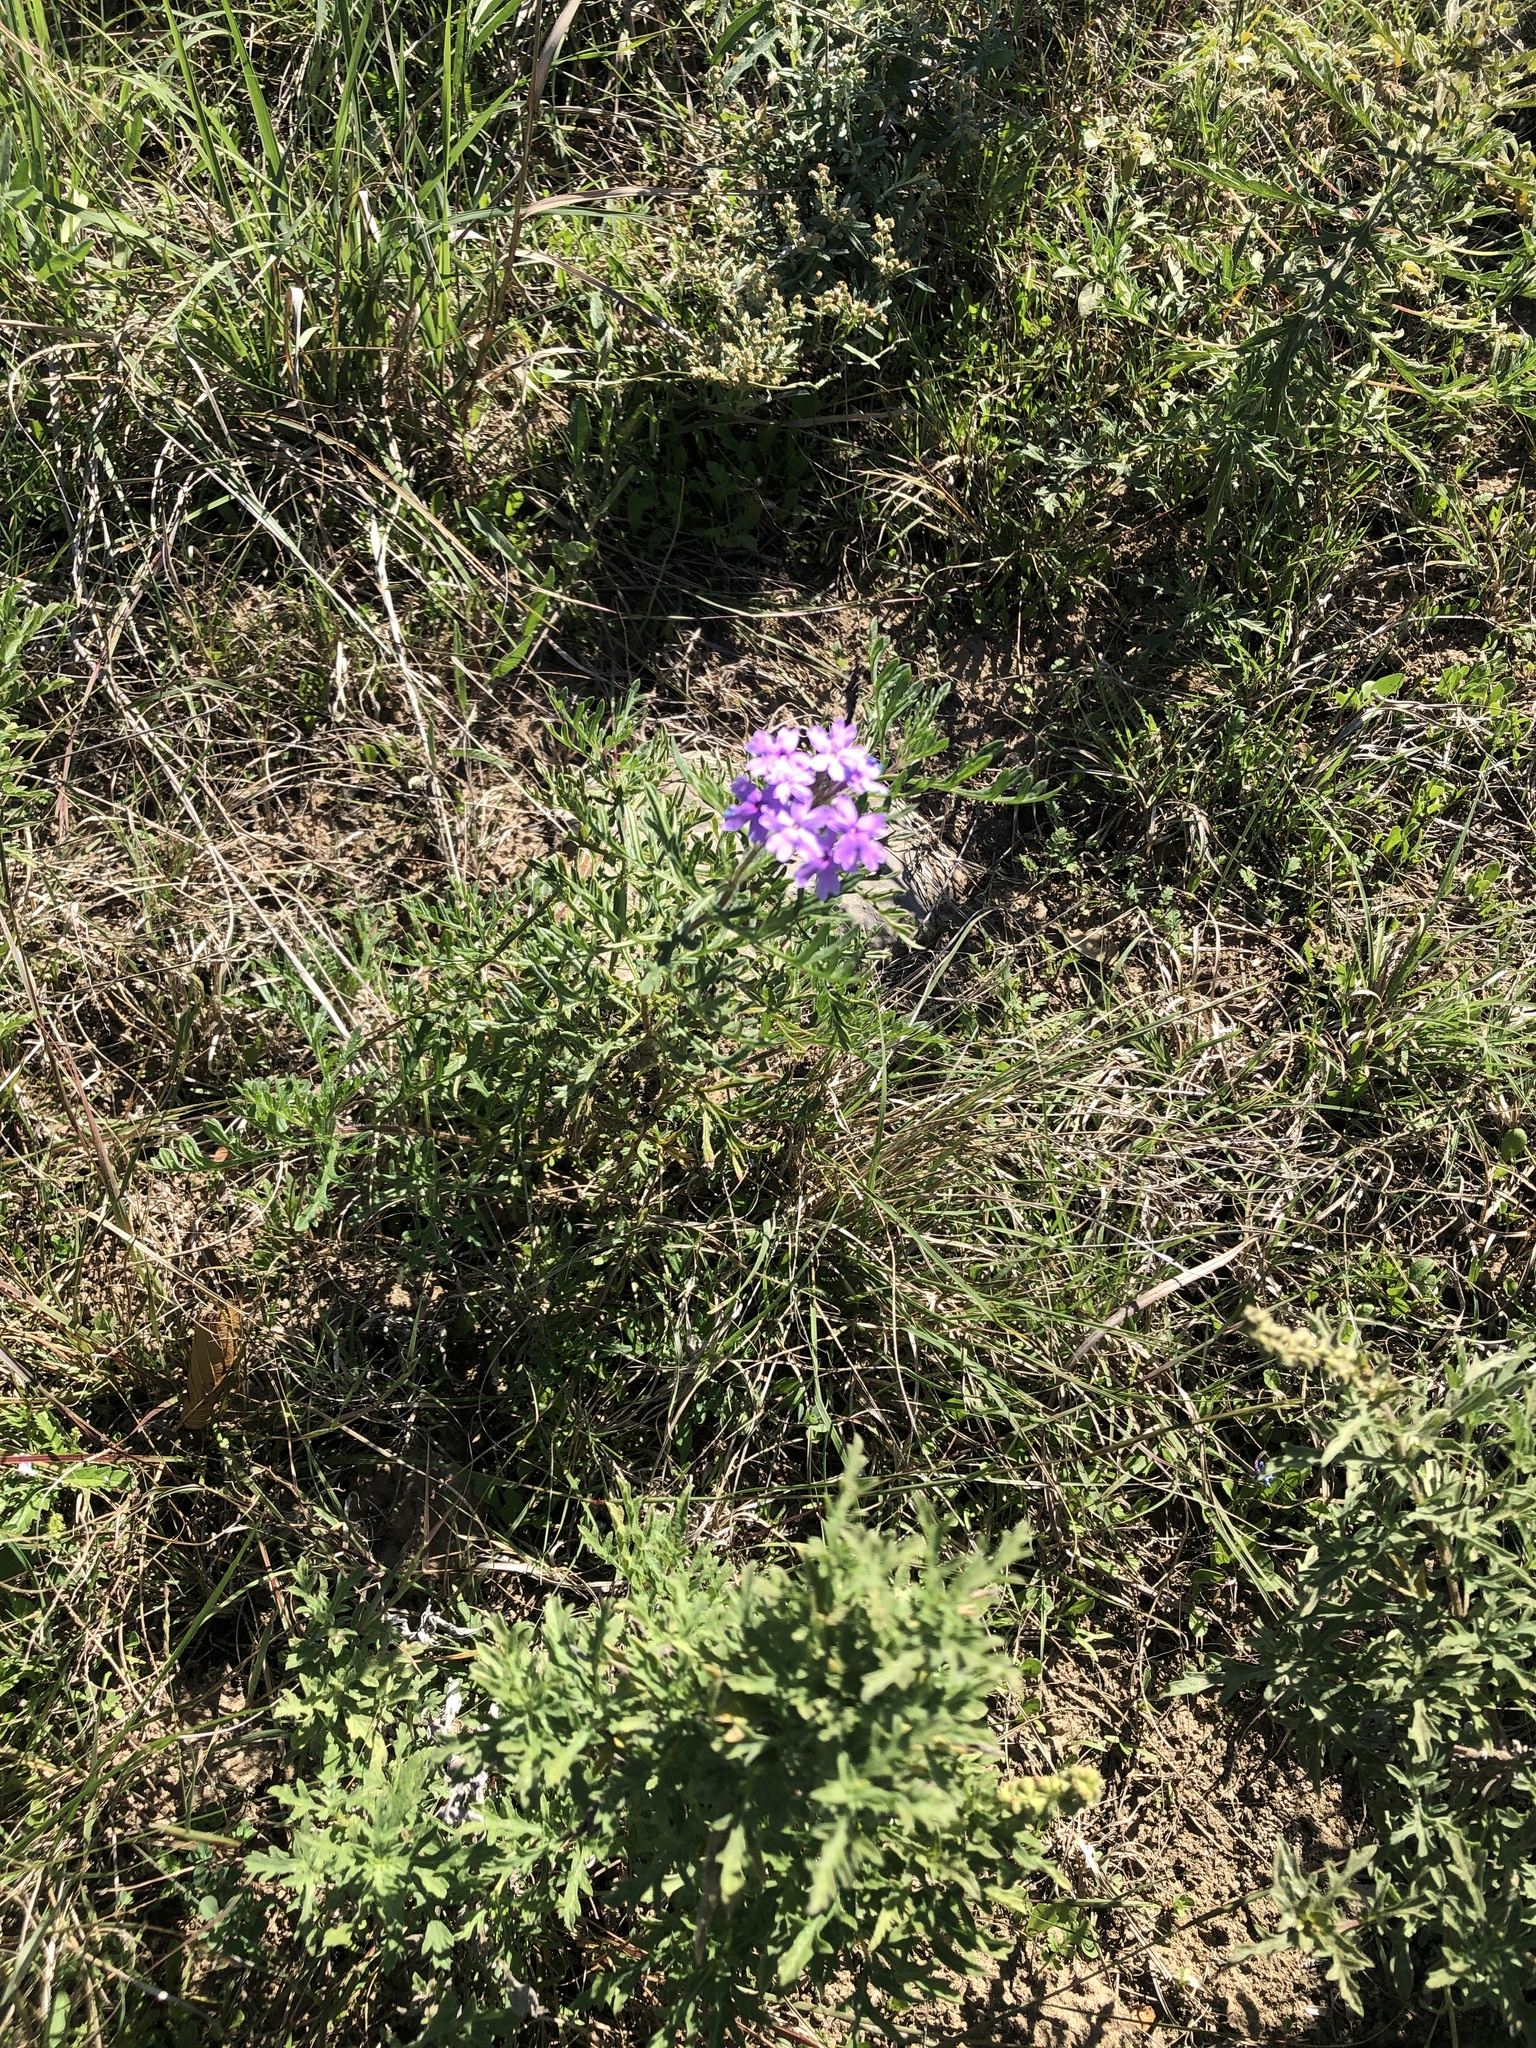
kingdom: Plantae
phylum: Tracheophyta
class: Magnoliopsida
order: Lamiales
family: Verbenaceae
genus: Verbena
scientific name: Verbena bipinnatifida
